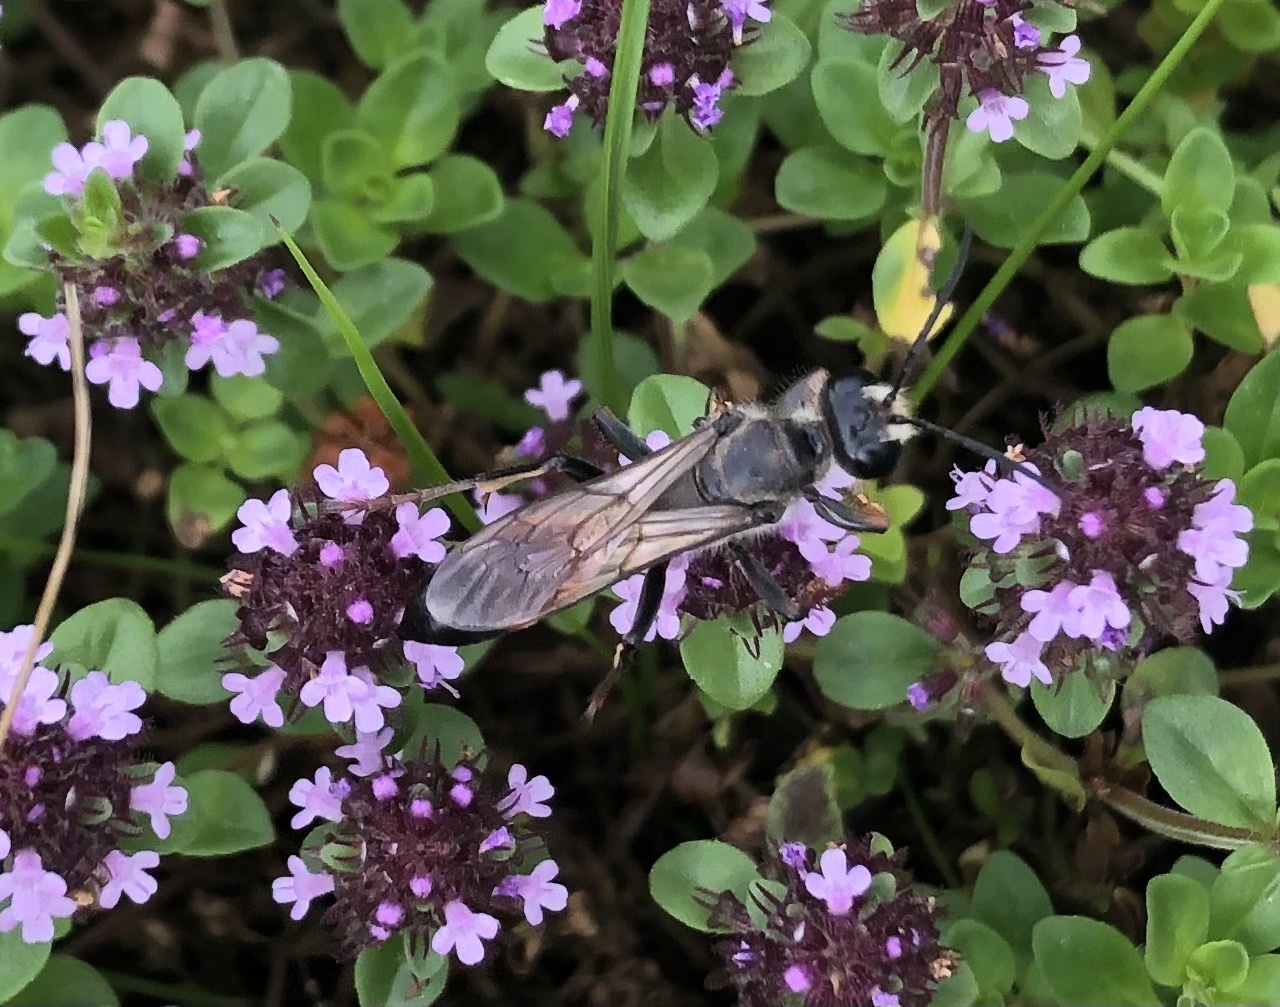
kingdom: Animalia
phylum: Arthropoda
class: Insecta
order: Hymenoptera
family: Sphecidae
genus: Sphex
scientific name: Sphex funerarius
